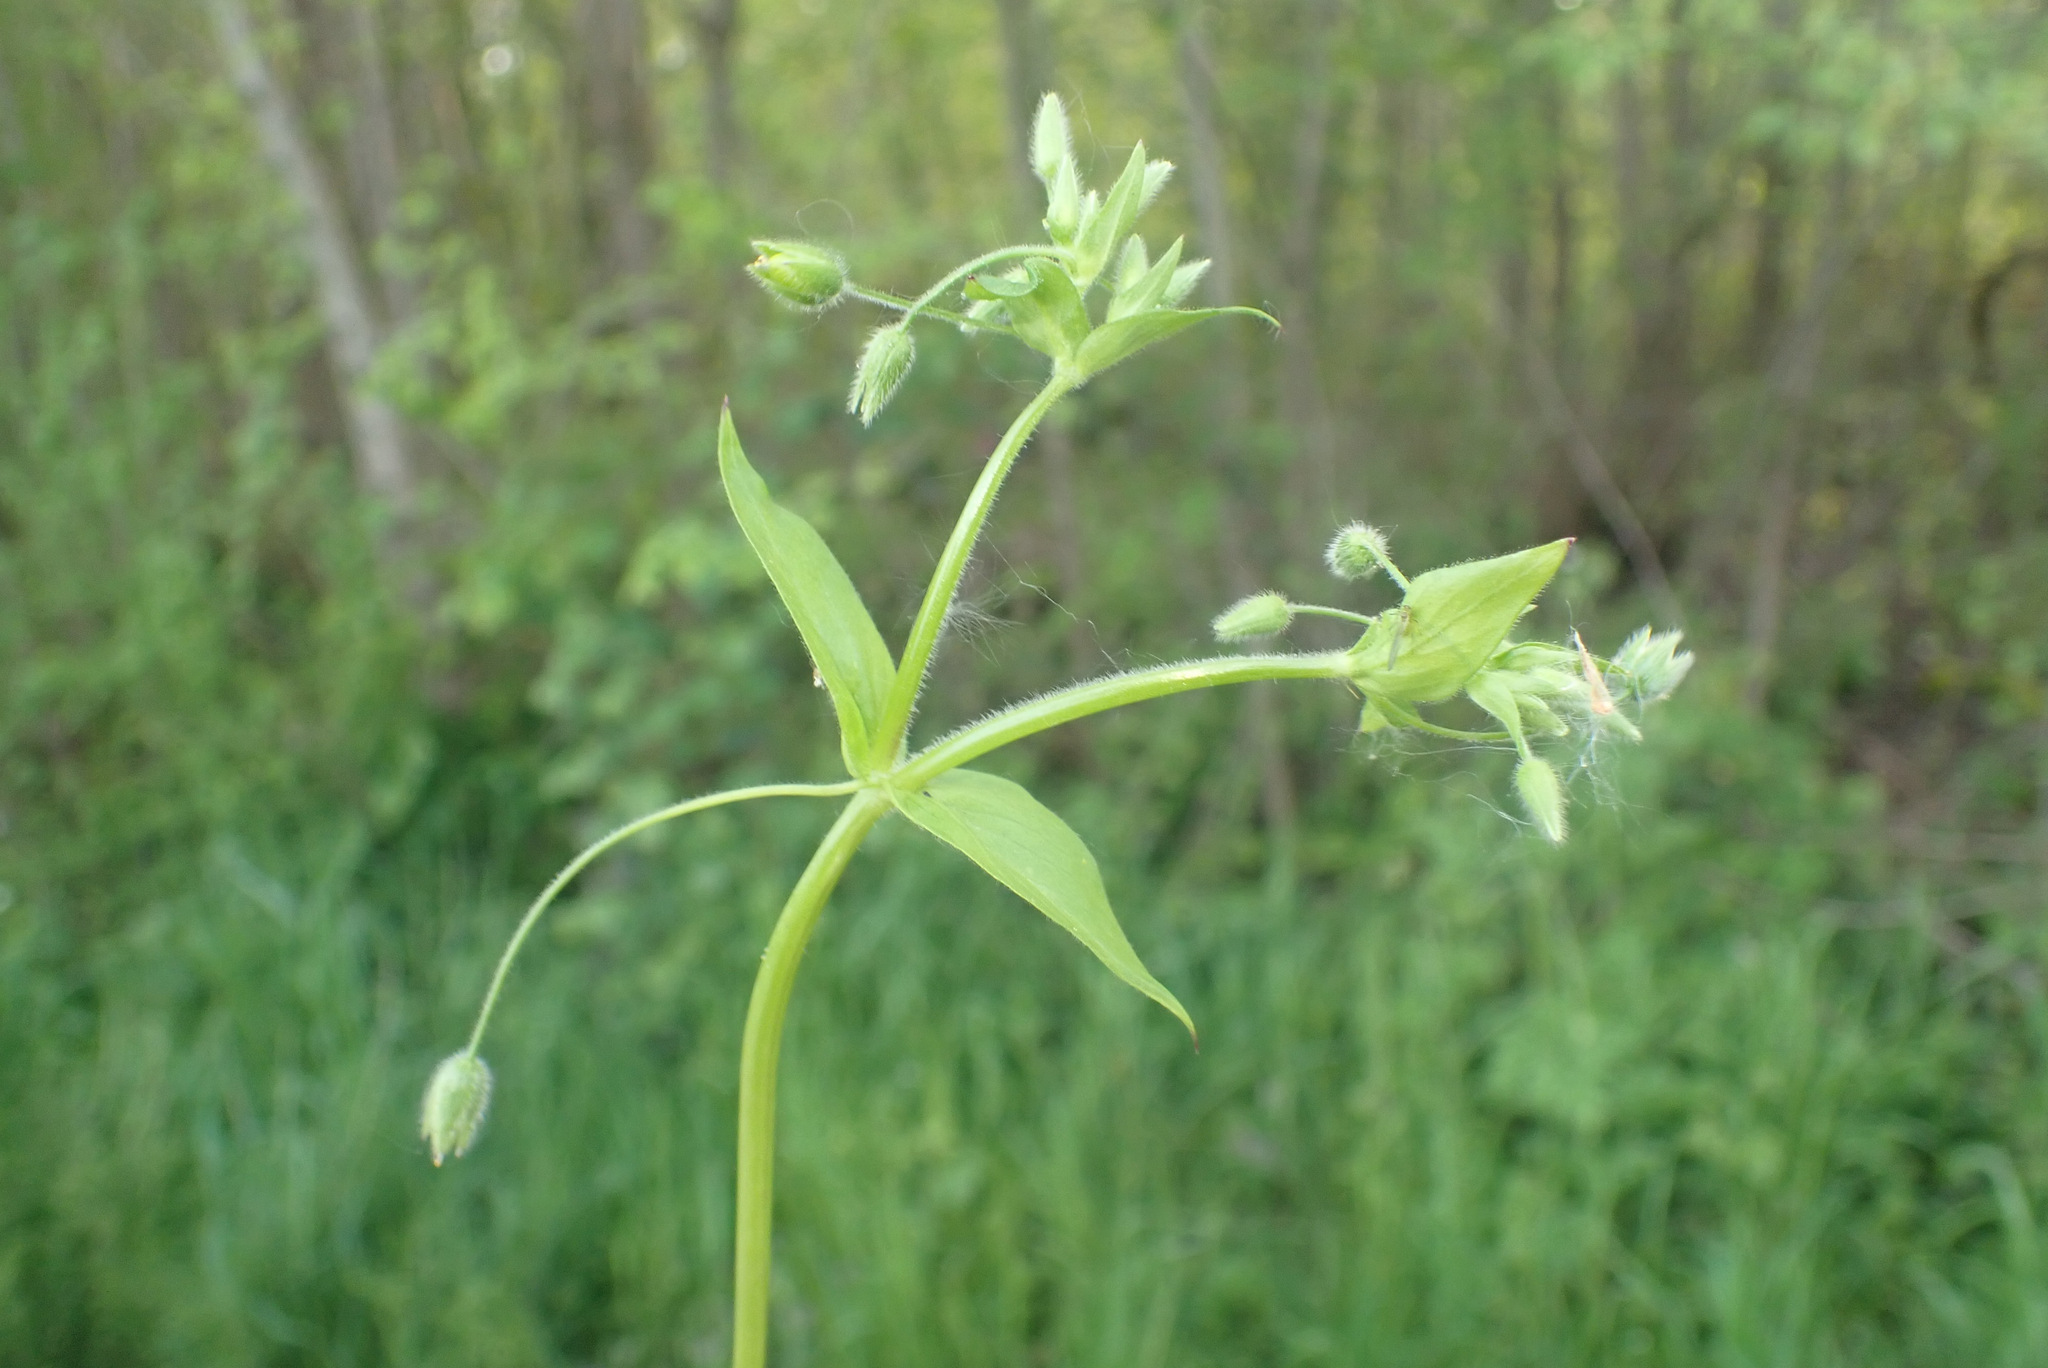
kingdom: Plantae
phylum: Tracheophyta
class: Magnoliopsida
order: Caryophyllales
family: Caryophyllaceae
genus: Stellaria
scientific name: Stellaria ruderalis
